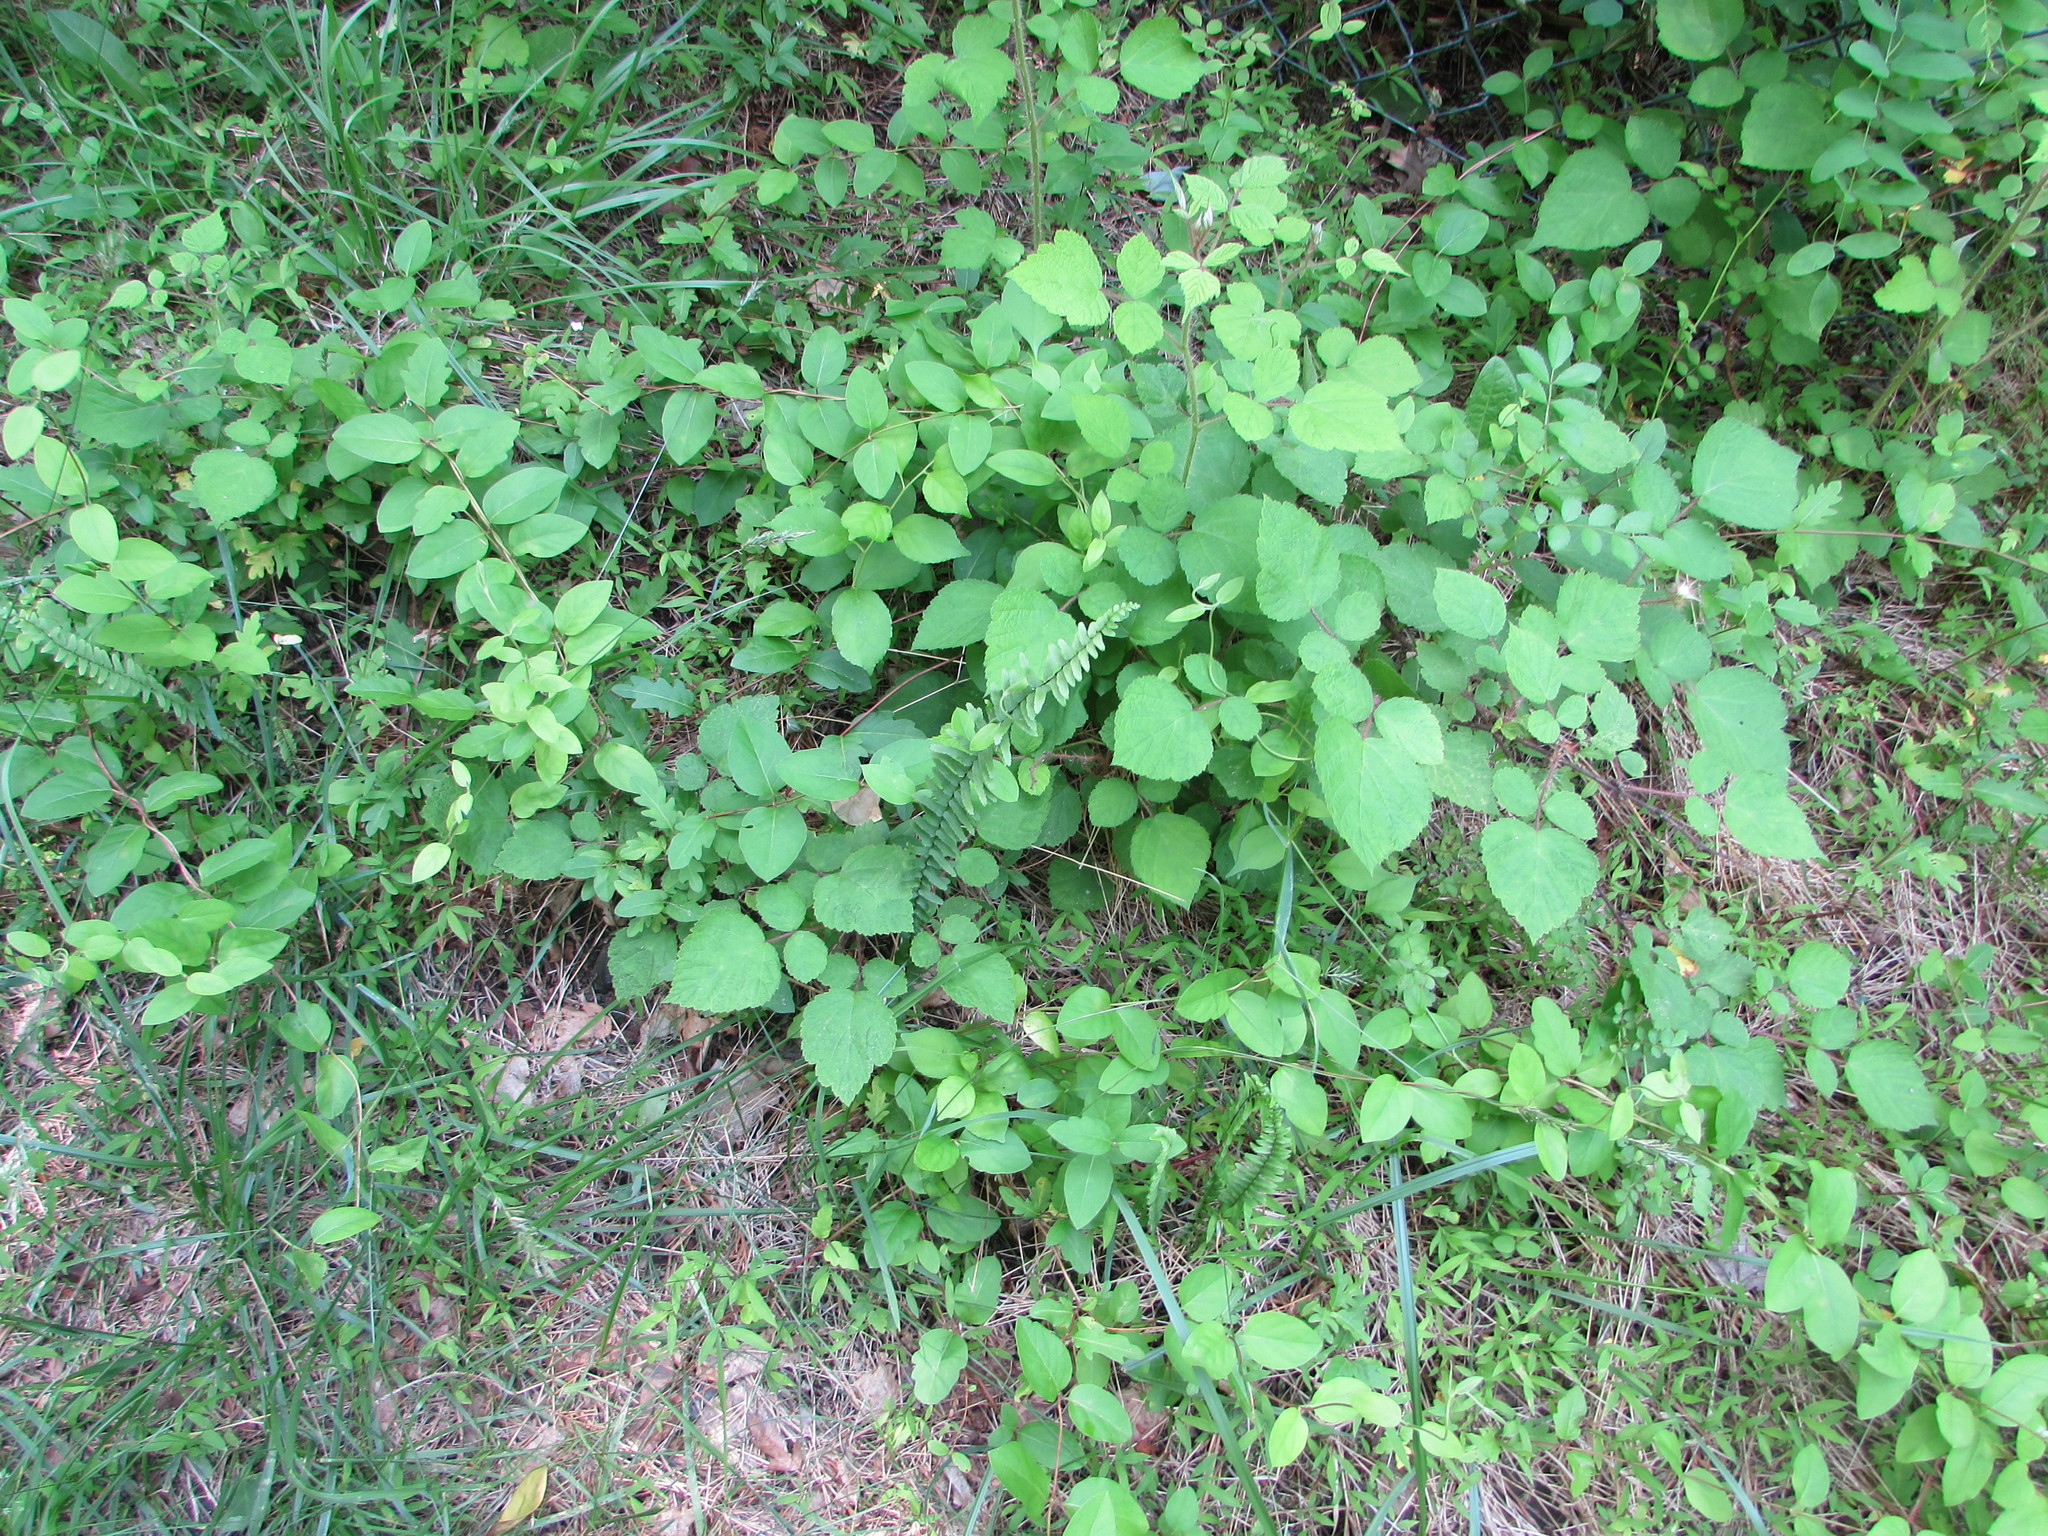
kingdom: Plantae
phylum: Tracheophyta
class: Polypodiopsida
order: Polypodiales
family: Aspleniaceae
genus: Asplenium
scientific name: Asplenium platyneuron
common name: Ebony spleenwort
